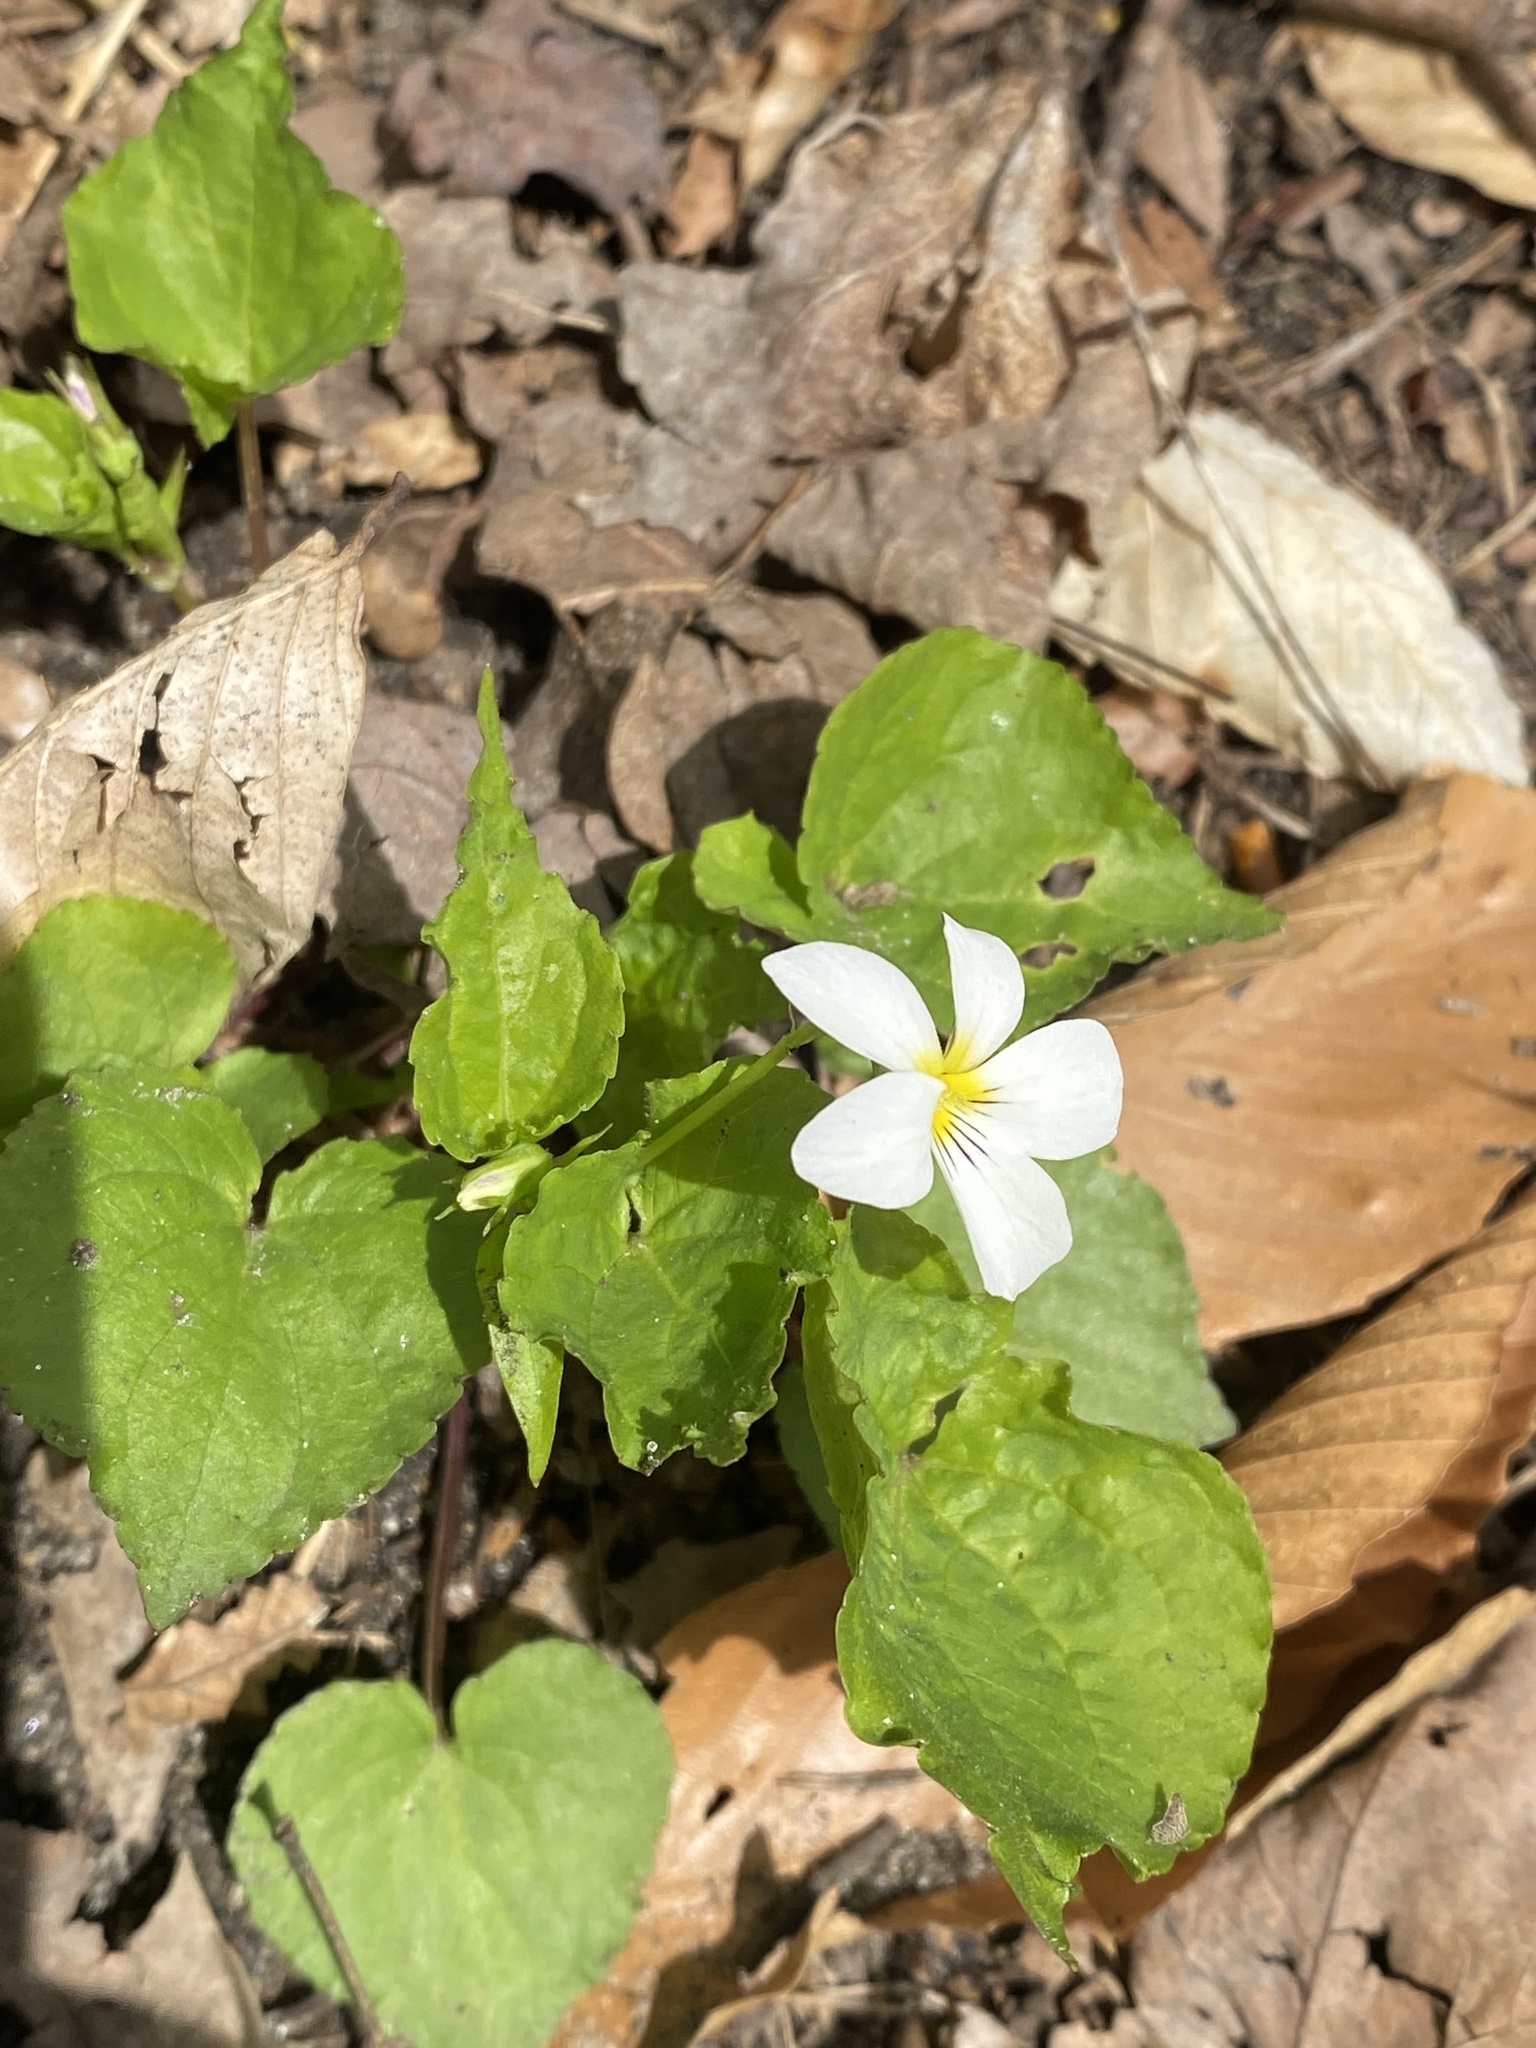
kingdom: Plantae
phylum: Tracheophyta
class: Magnoliopsida
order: Malpighiales
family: Violaceae
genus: Viola
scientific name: Viola canadensis
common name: Canada violet
